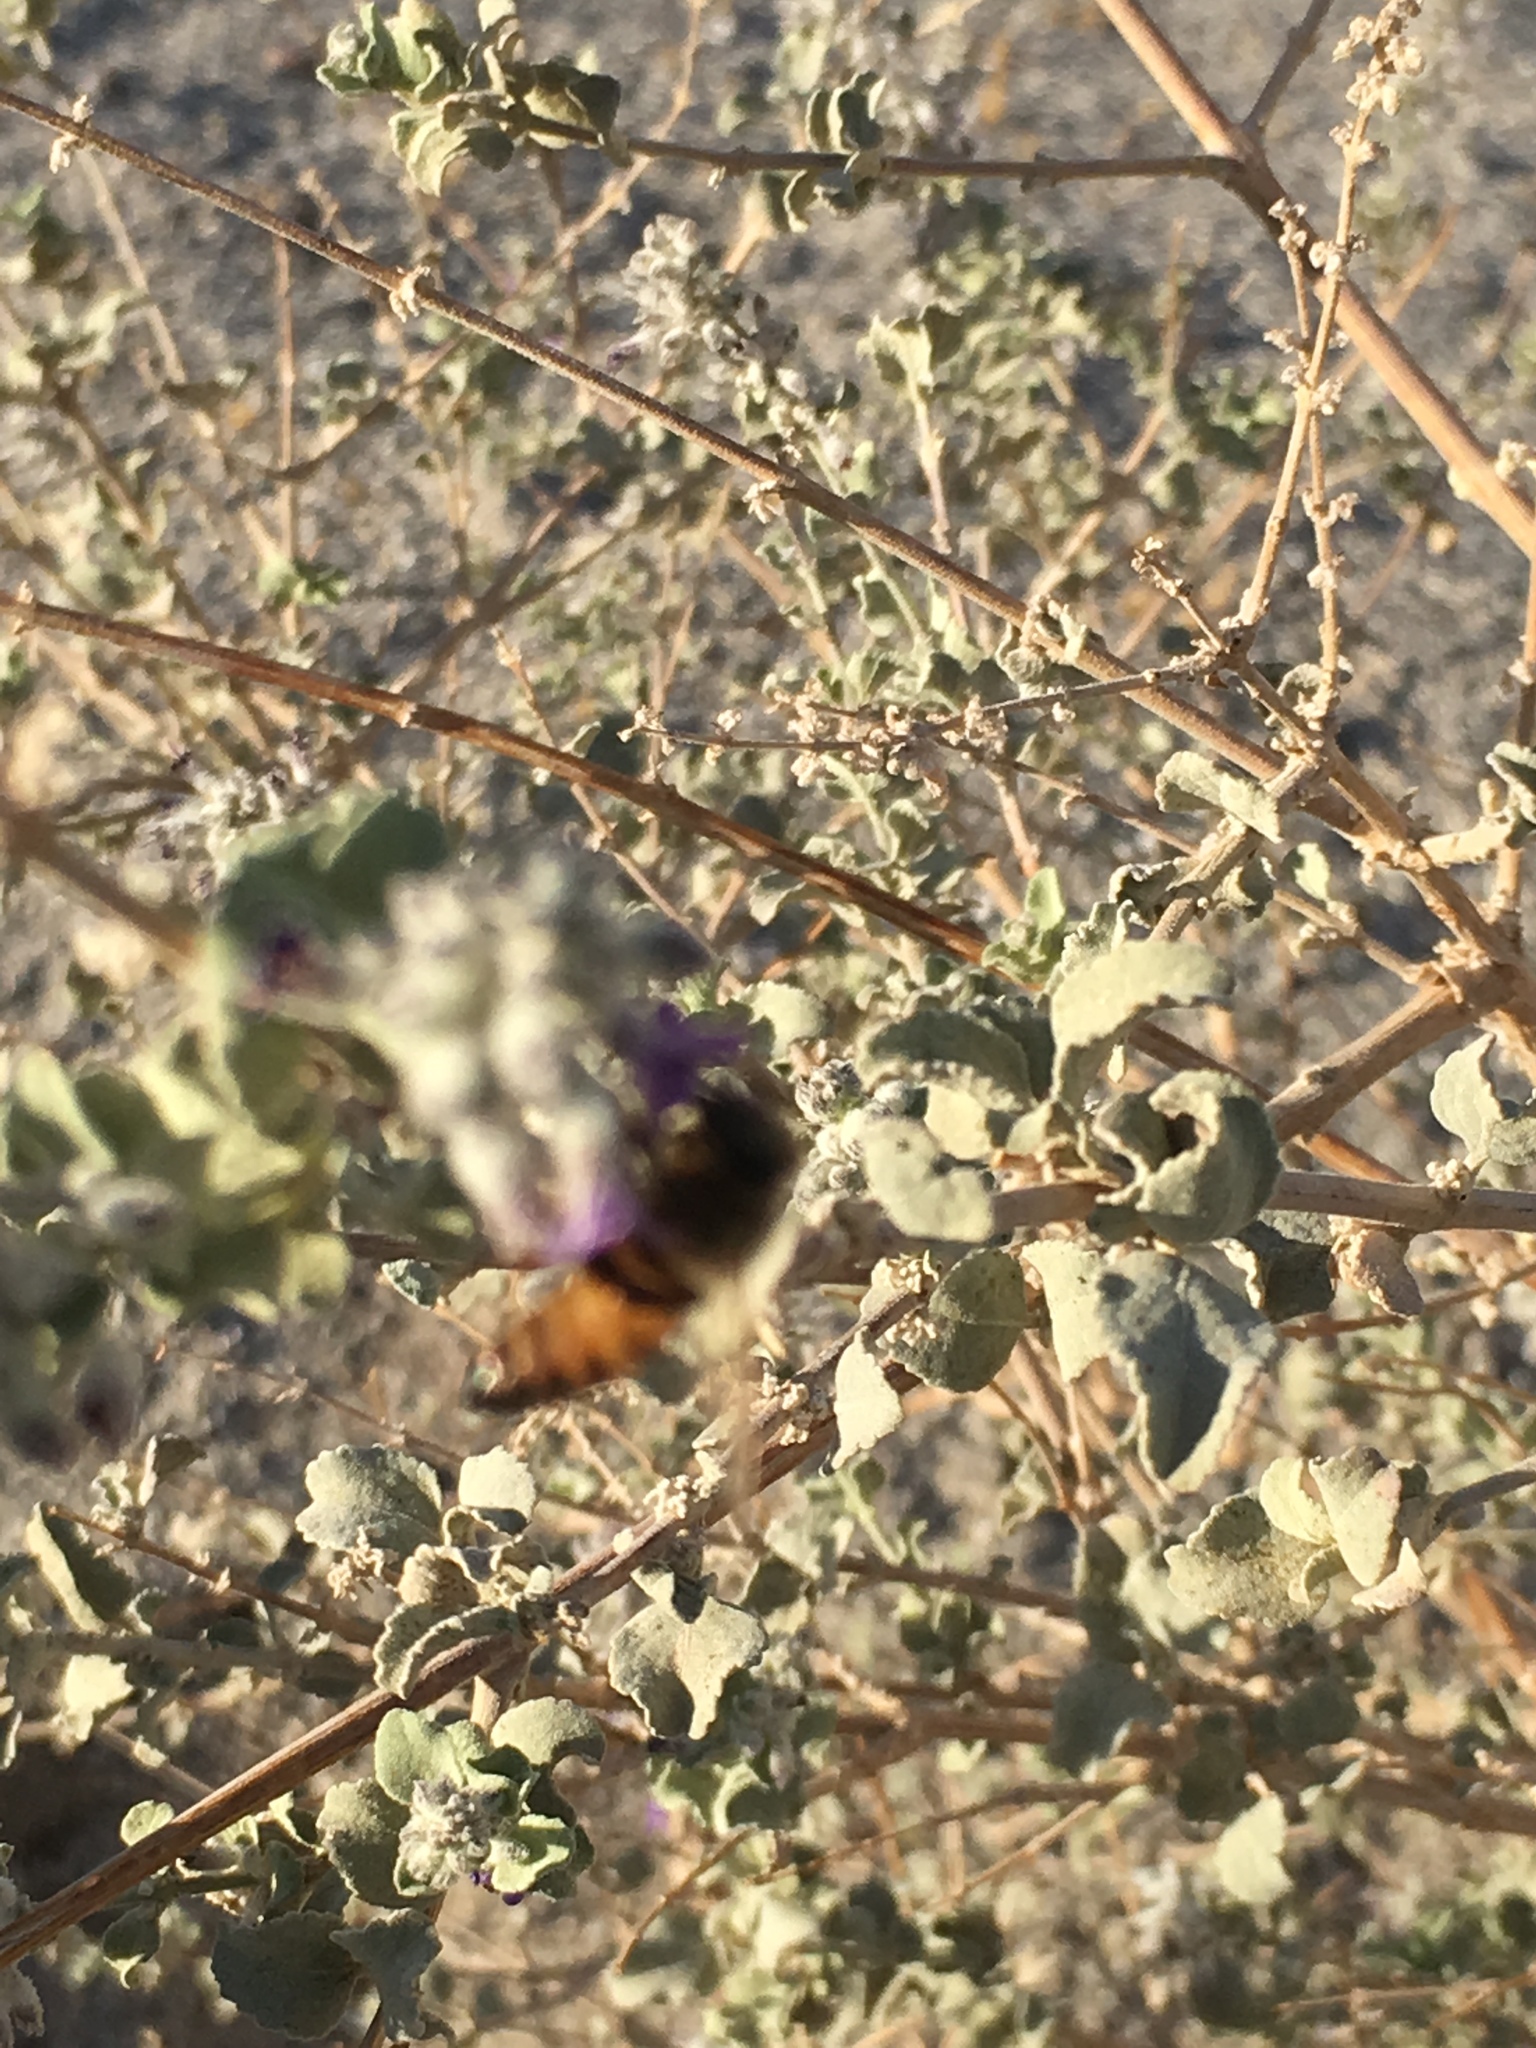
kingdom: Animalia
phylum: Arthropoda
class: Insecta
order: Hymenoptera
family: Apidae
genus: Apis
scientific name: Apis mellifera
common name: Honey bee
